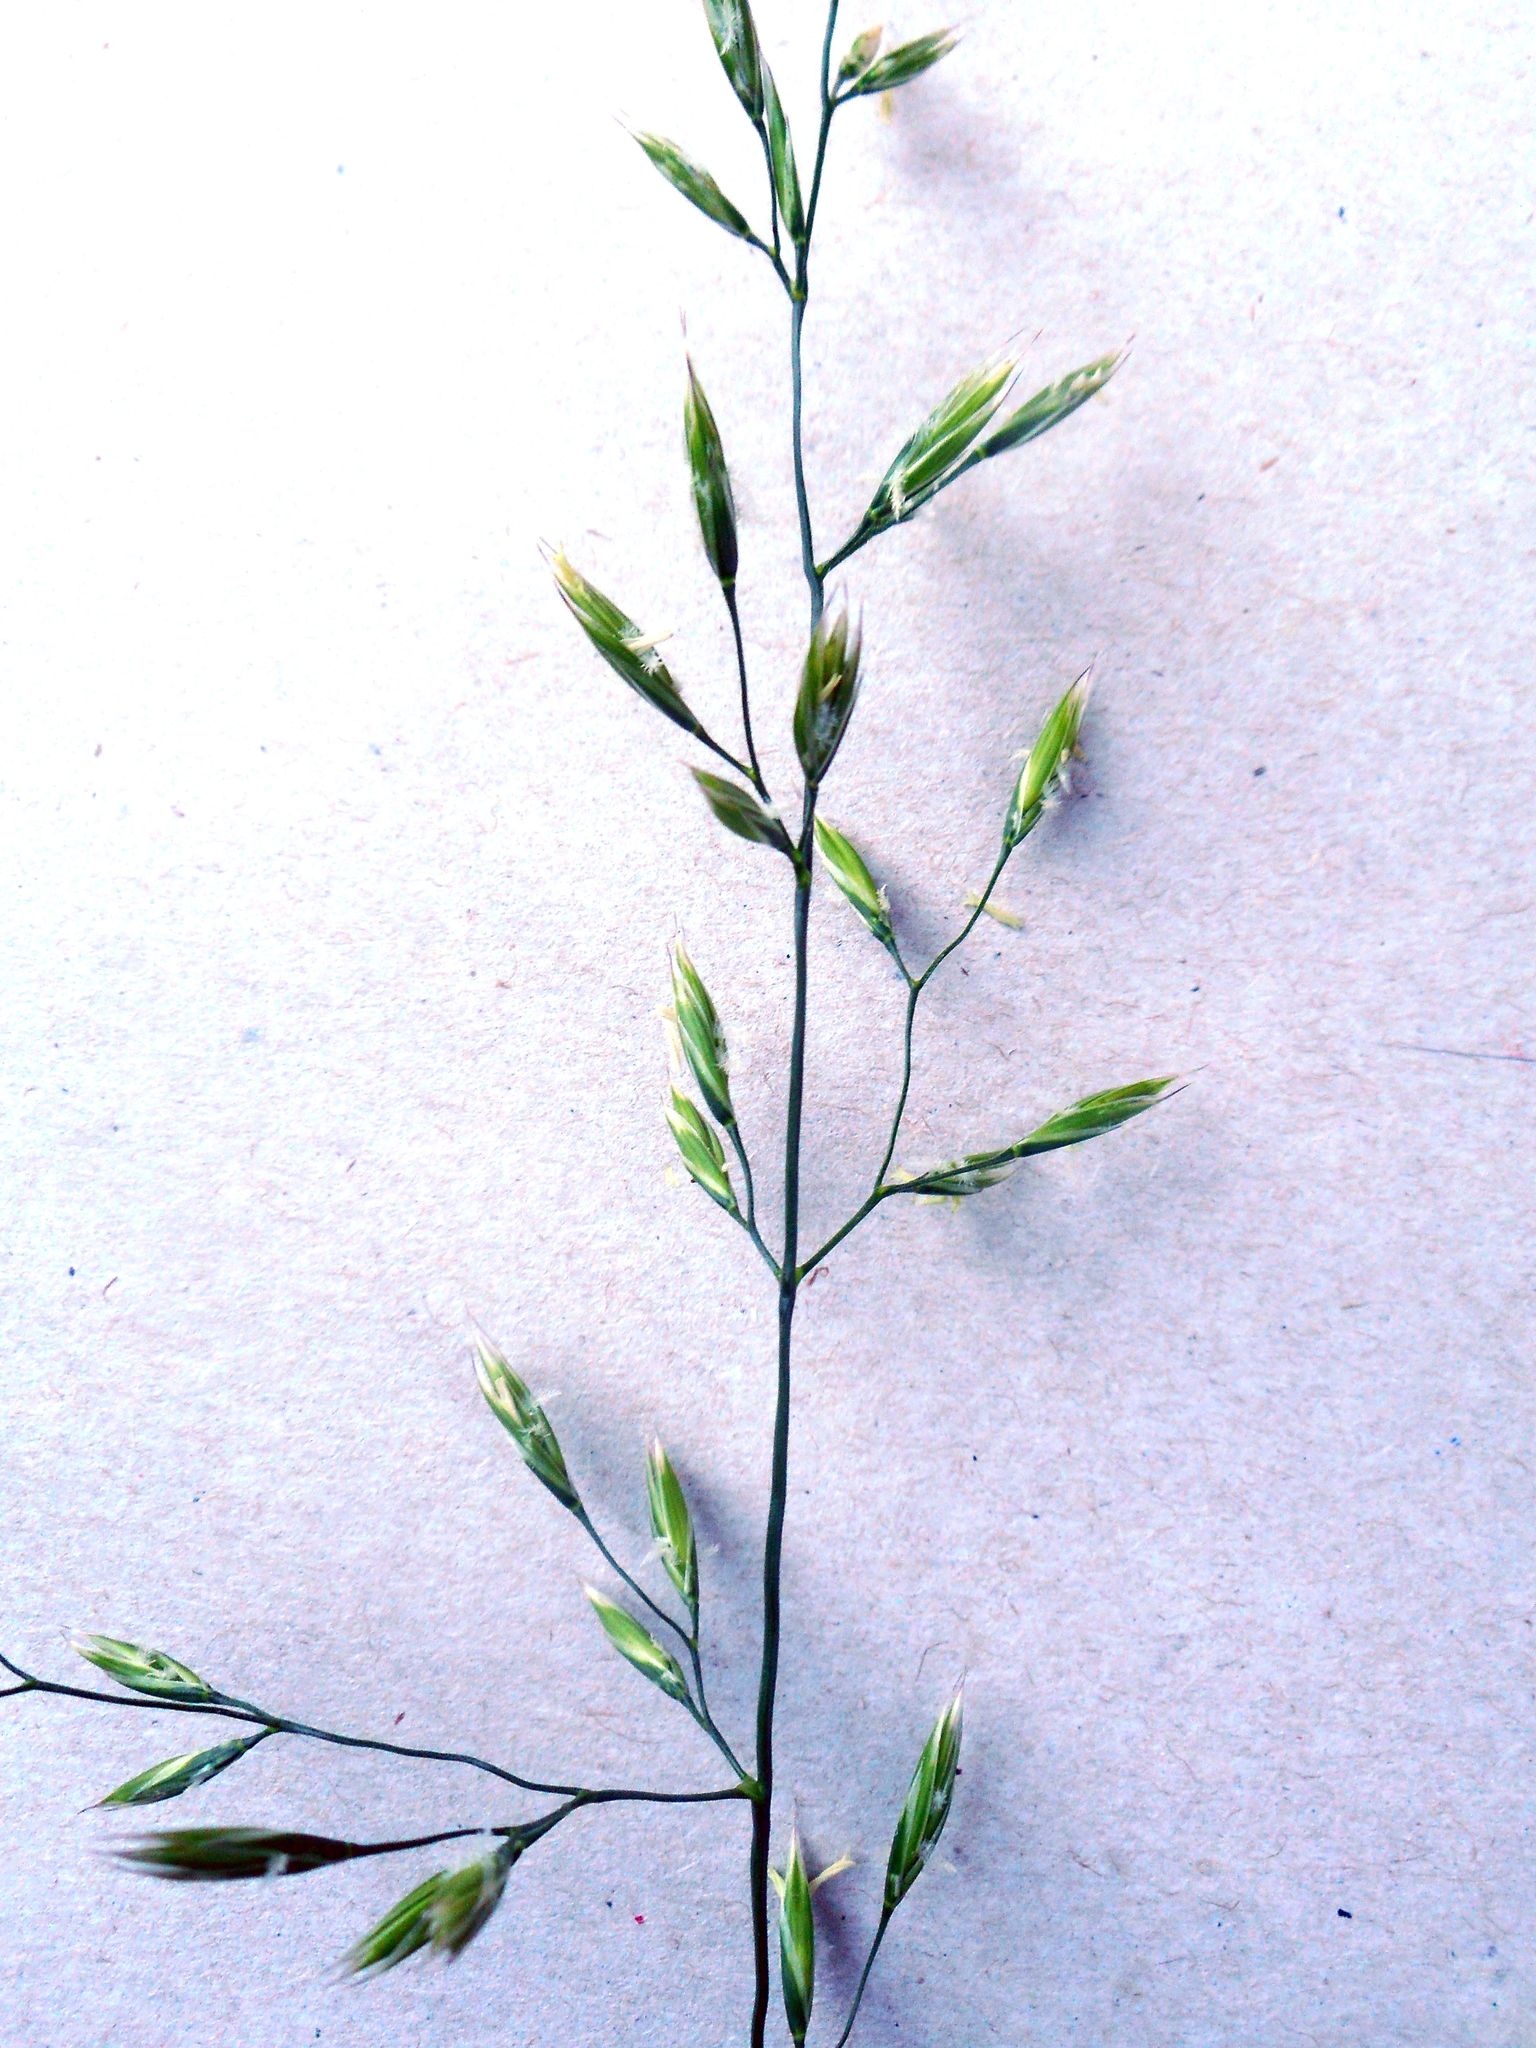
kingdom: Plantae
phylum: Tracheophyta
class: Liliopsida
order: Poales
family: Poaceae
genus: Lolium
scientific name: Lolium arundinaceum
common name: Reed fescue
